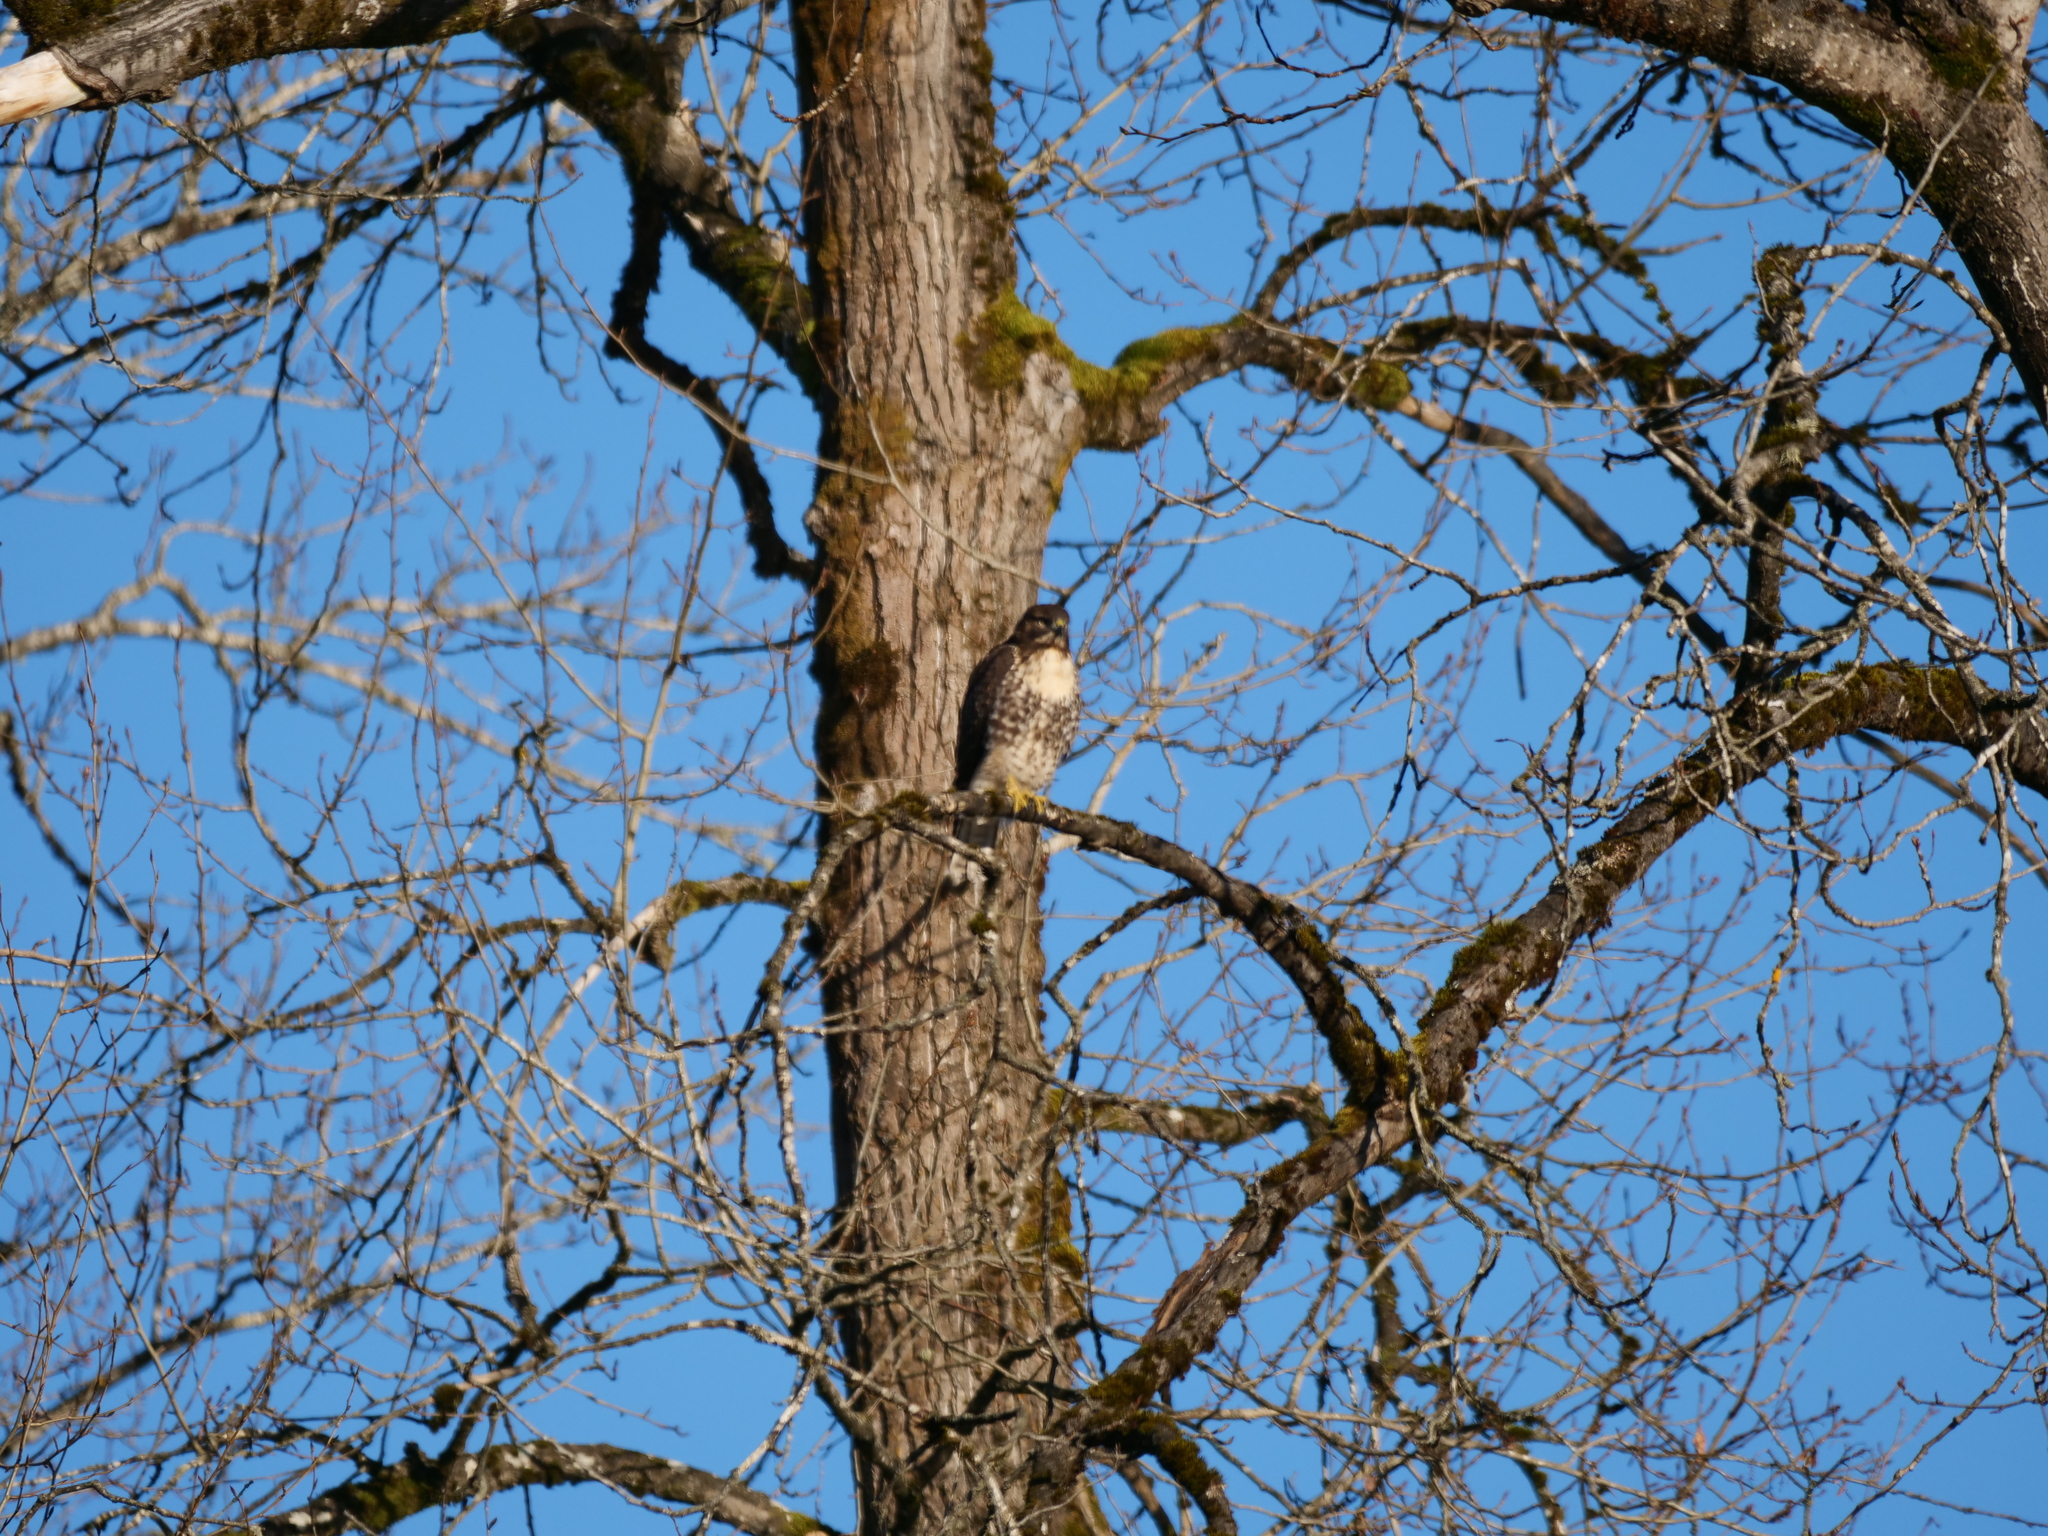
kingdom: Animalia
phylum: Chordata
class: Aves
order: Accipitriformes
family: Accipitridae
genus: Buteo
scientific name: Buteo jamaicensis
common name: Red-tailed hawk
